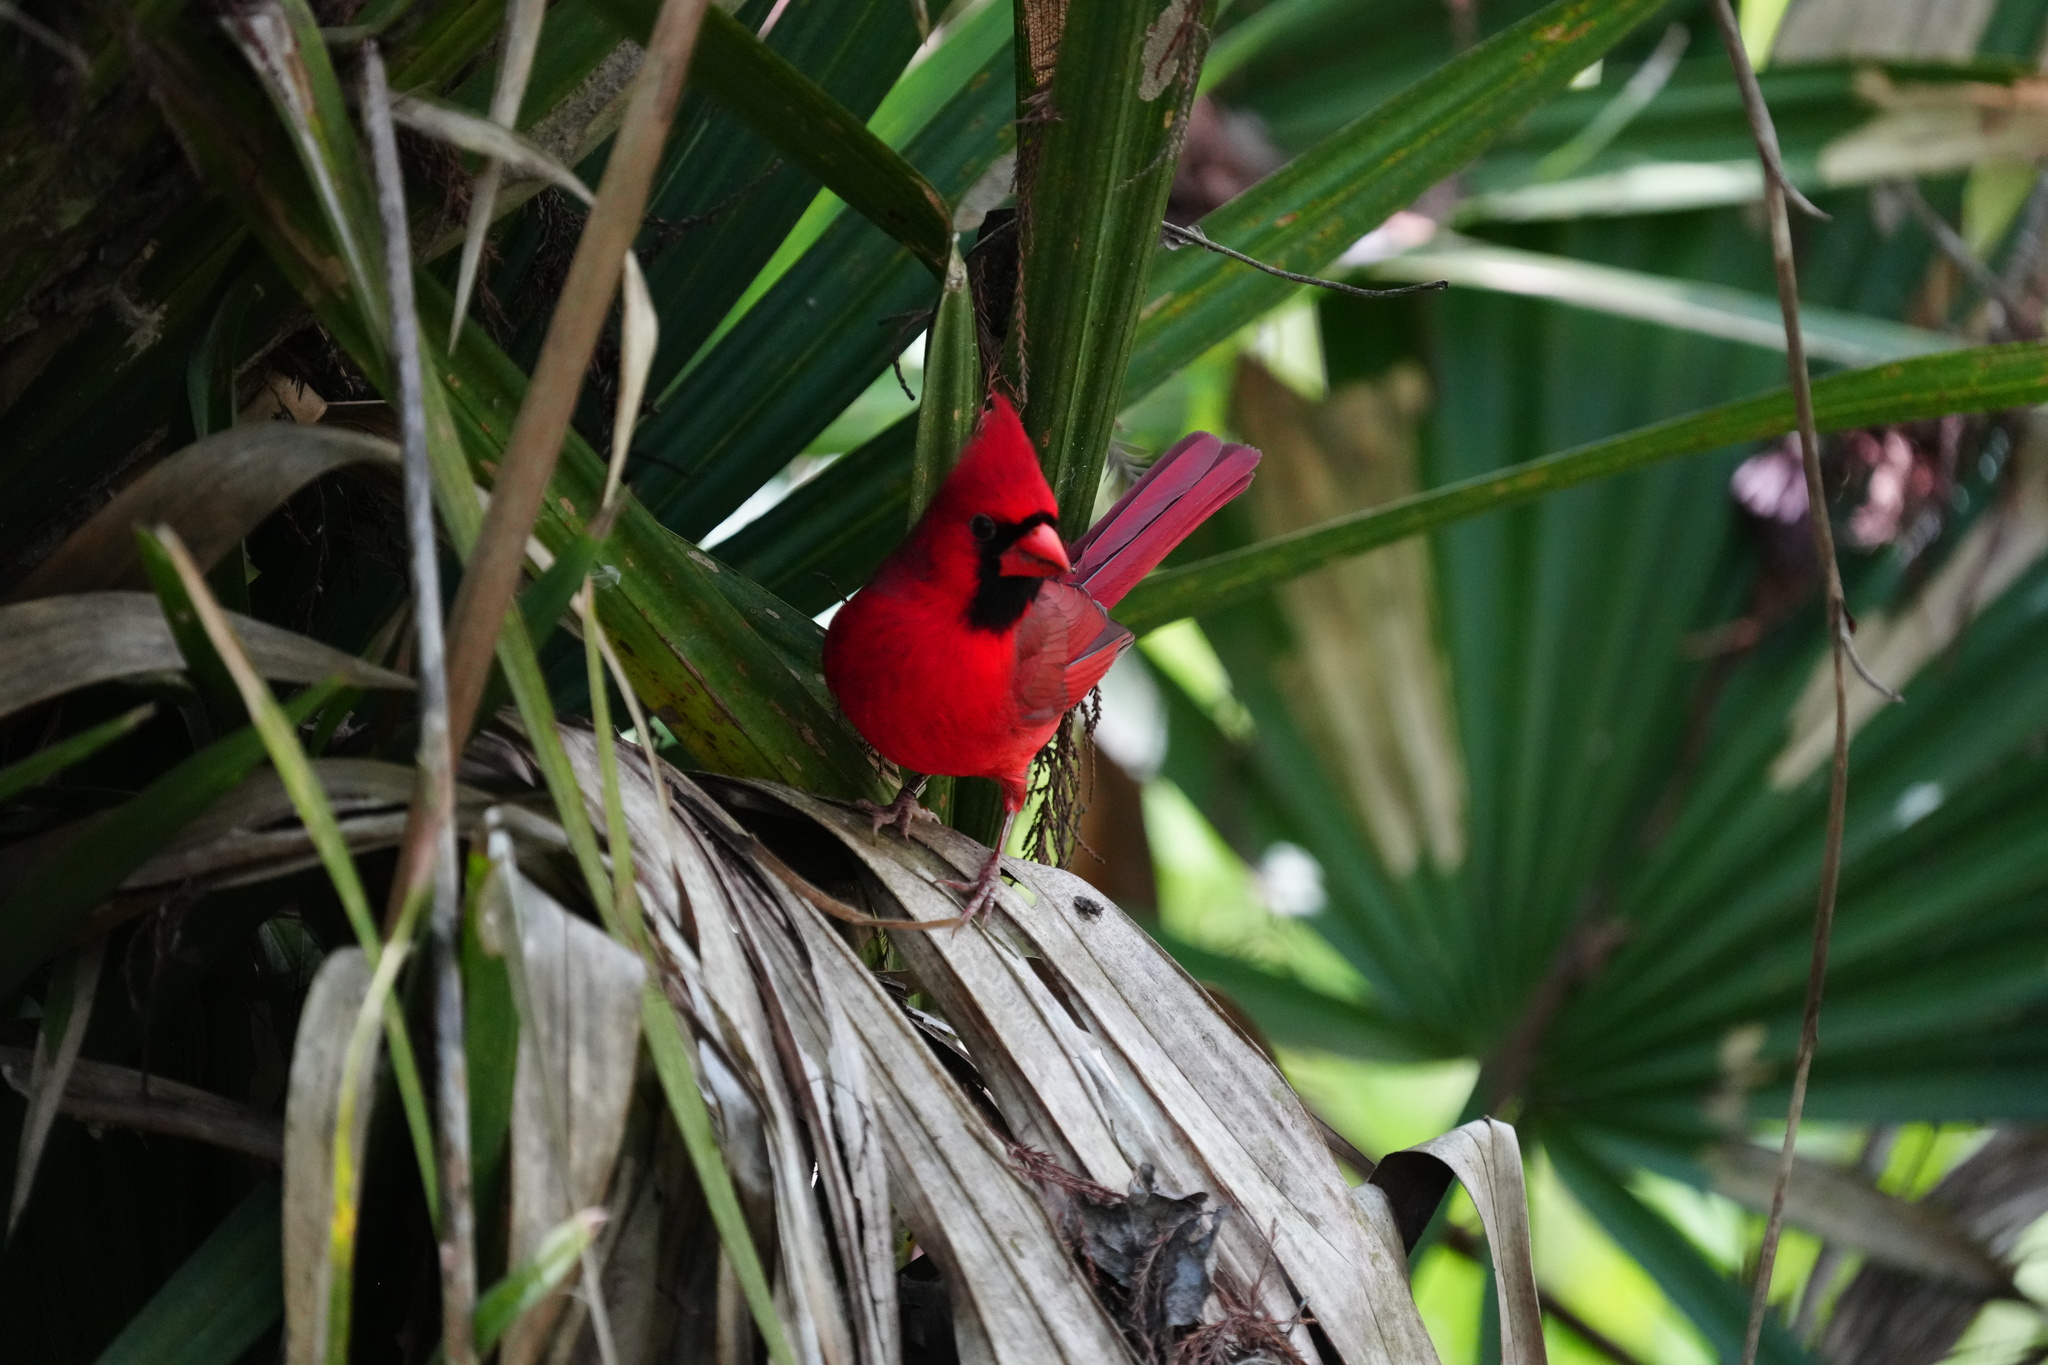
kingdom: Animalia
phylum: Chordata
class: Aves
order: Passeriformes
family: Cardinalidae
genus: Cardinalis
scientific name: Cardinalis cardinalis
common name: Northern cardinal
